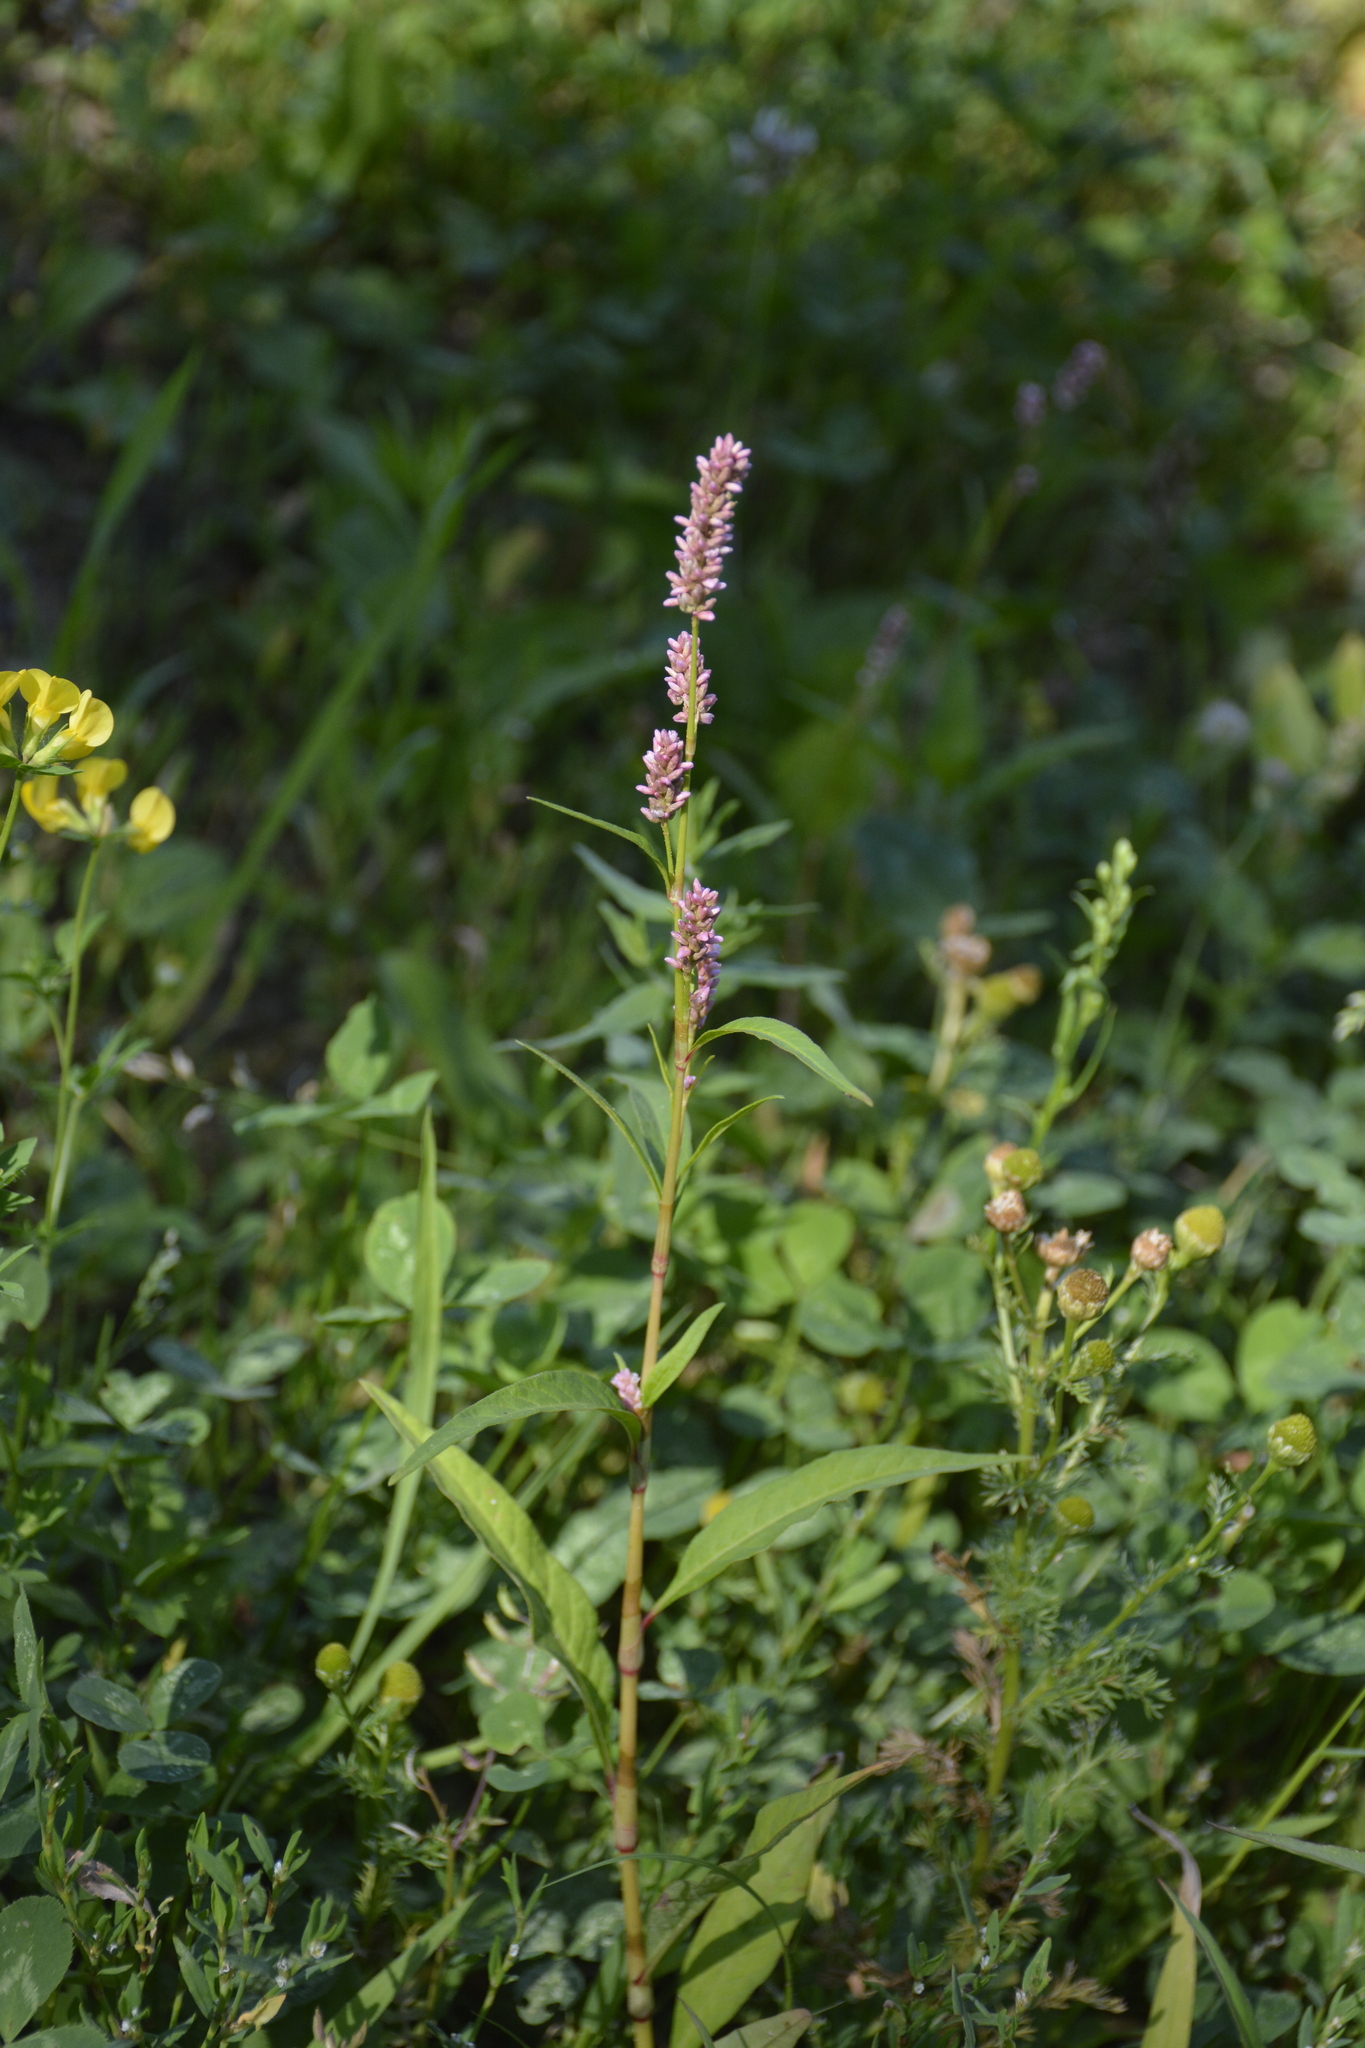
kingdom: Plantae
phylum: Tracheophyta
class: Magnoliopsida
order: Caryophyllales
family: Polygonaceae
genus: Persicaria
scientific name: Persicaria lapathifolia
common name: Curlytop knotweed
